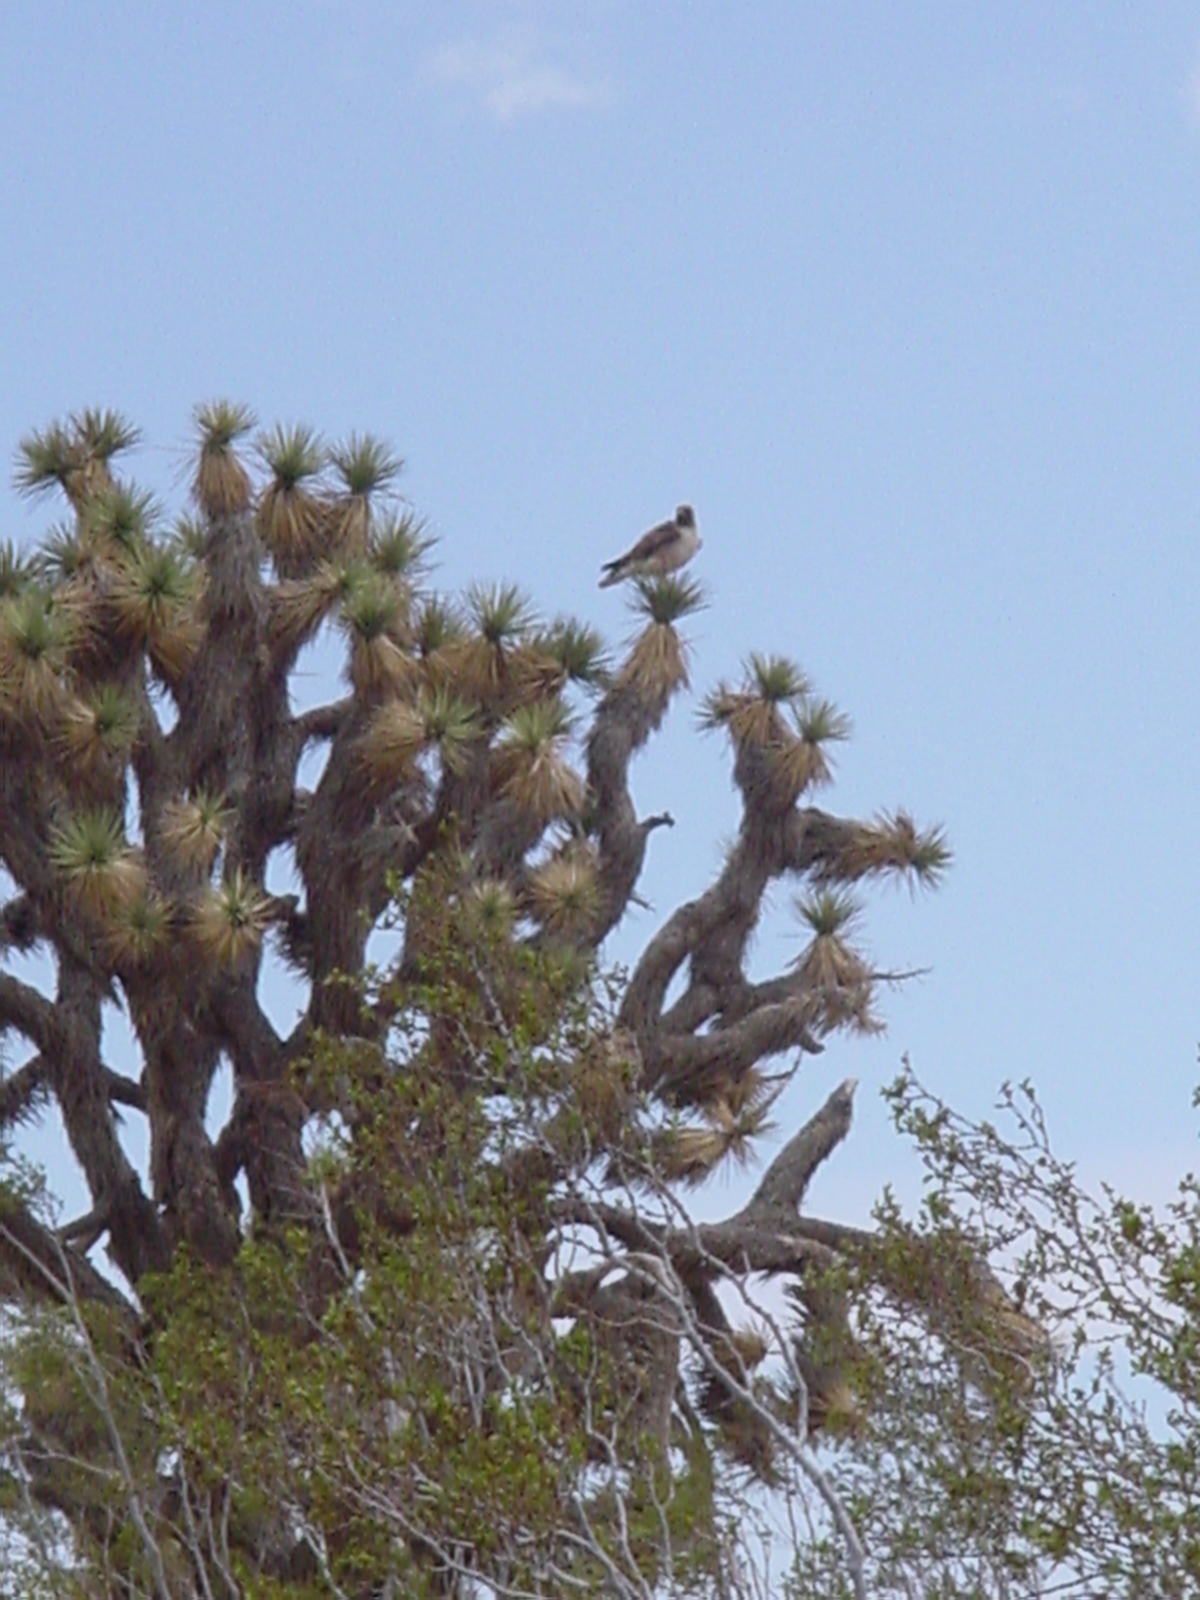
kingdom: Animalia
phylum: Chordata
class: Aves
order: Accipitriformes
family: Accipitridae
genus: Buteo
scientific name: Buteo jamaicensis
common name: Red-tailed hawk
